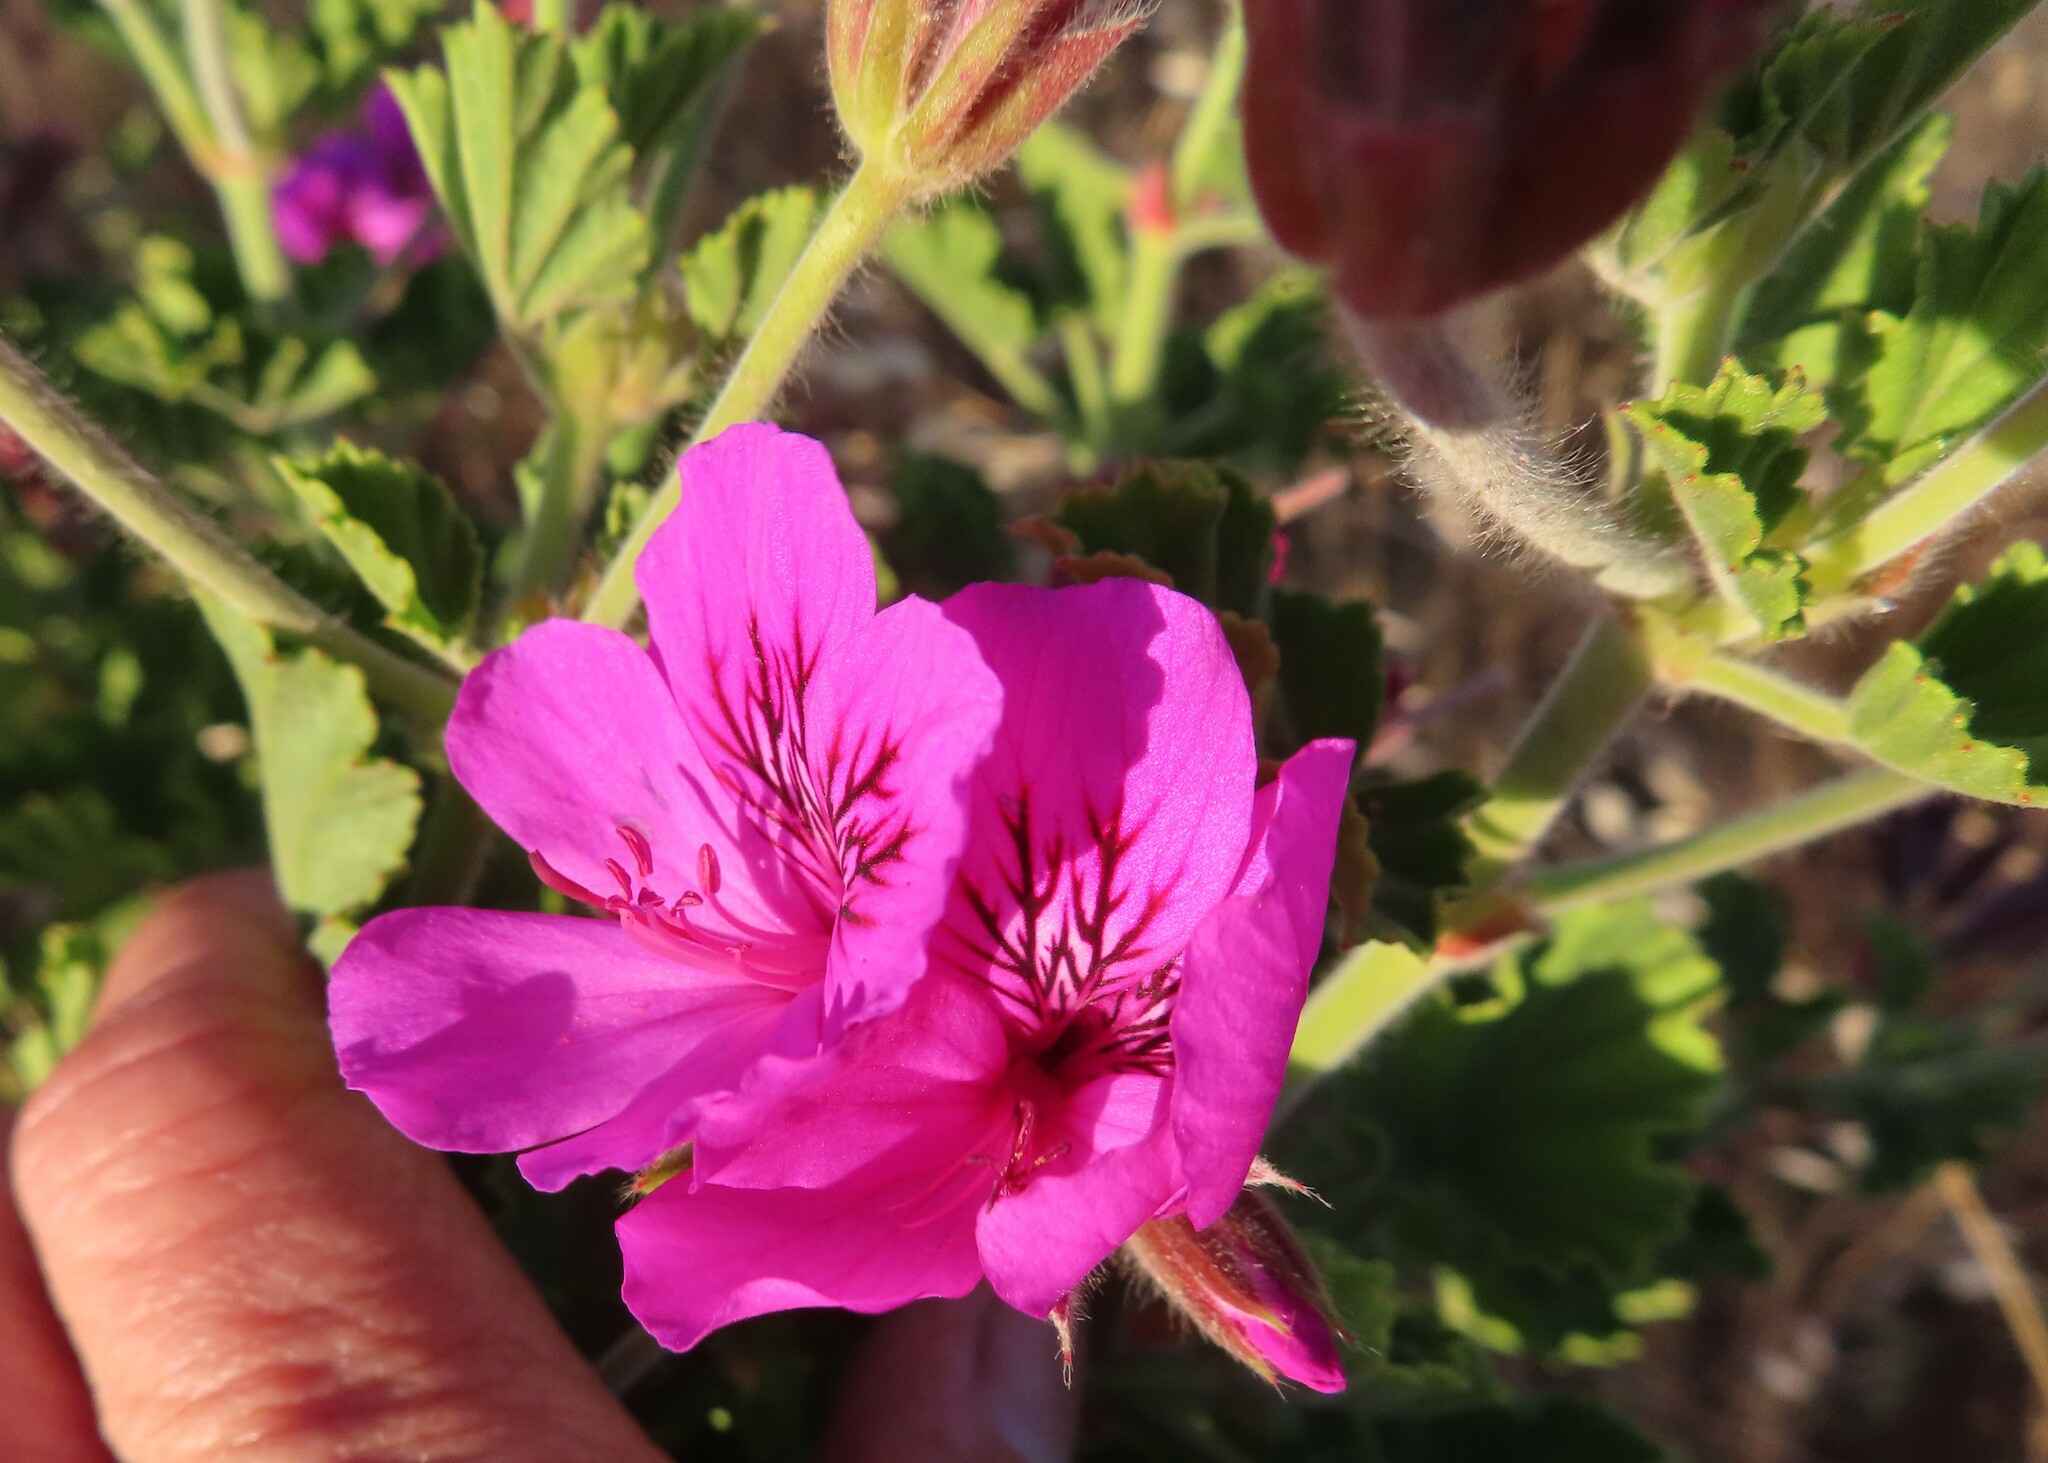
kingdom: Plantae
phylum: Tracheophyta
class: Magnoliopsida
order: Geraniales
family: Geraniaceae
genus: Pelargonium
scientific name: Pelargonium cucullatum
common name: Tree pelargonium
